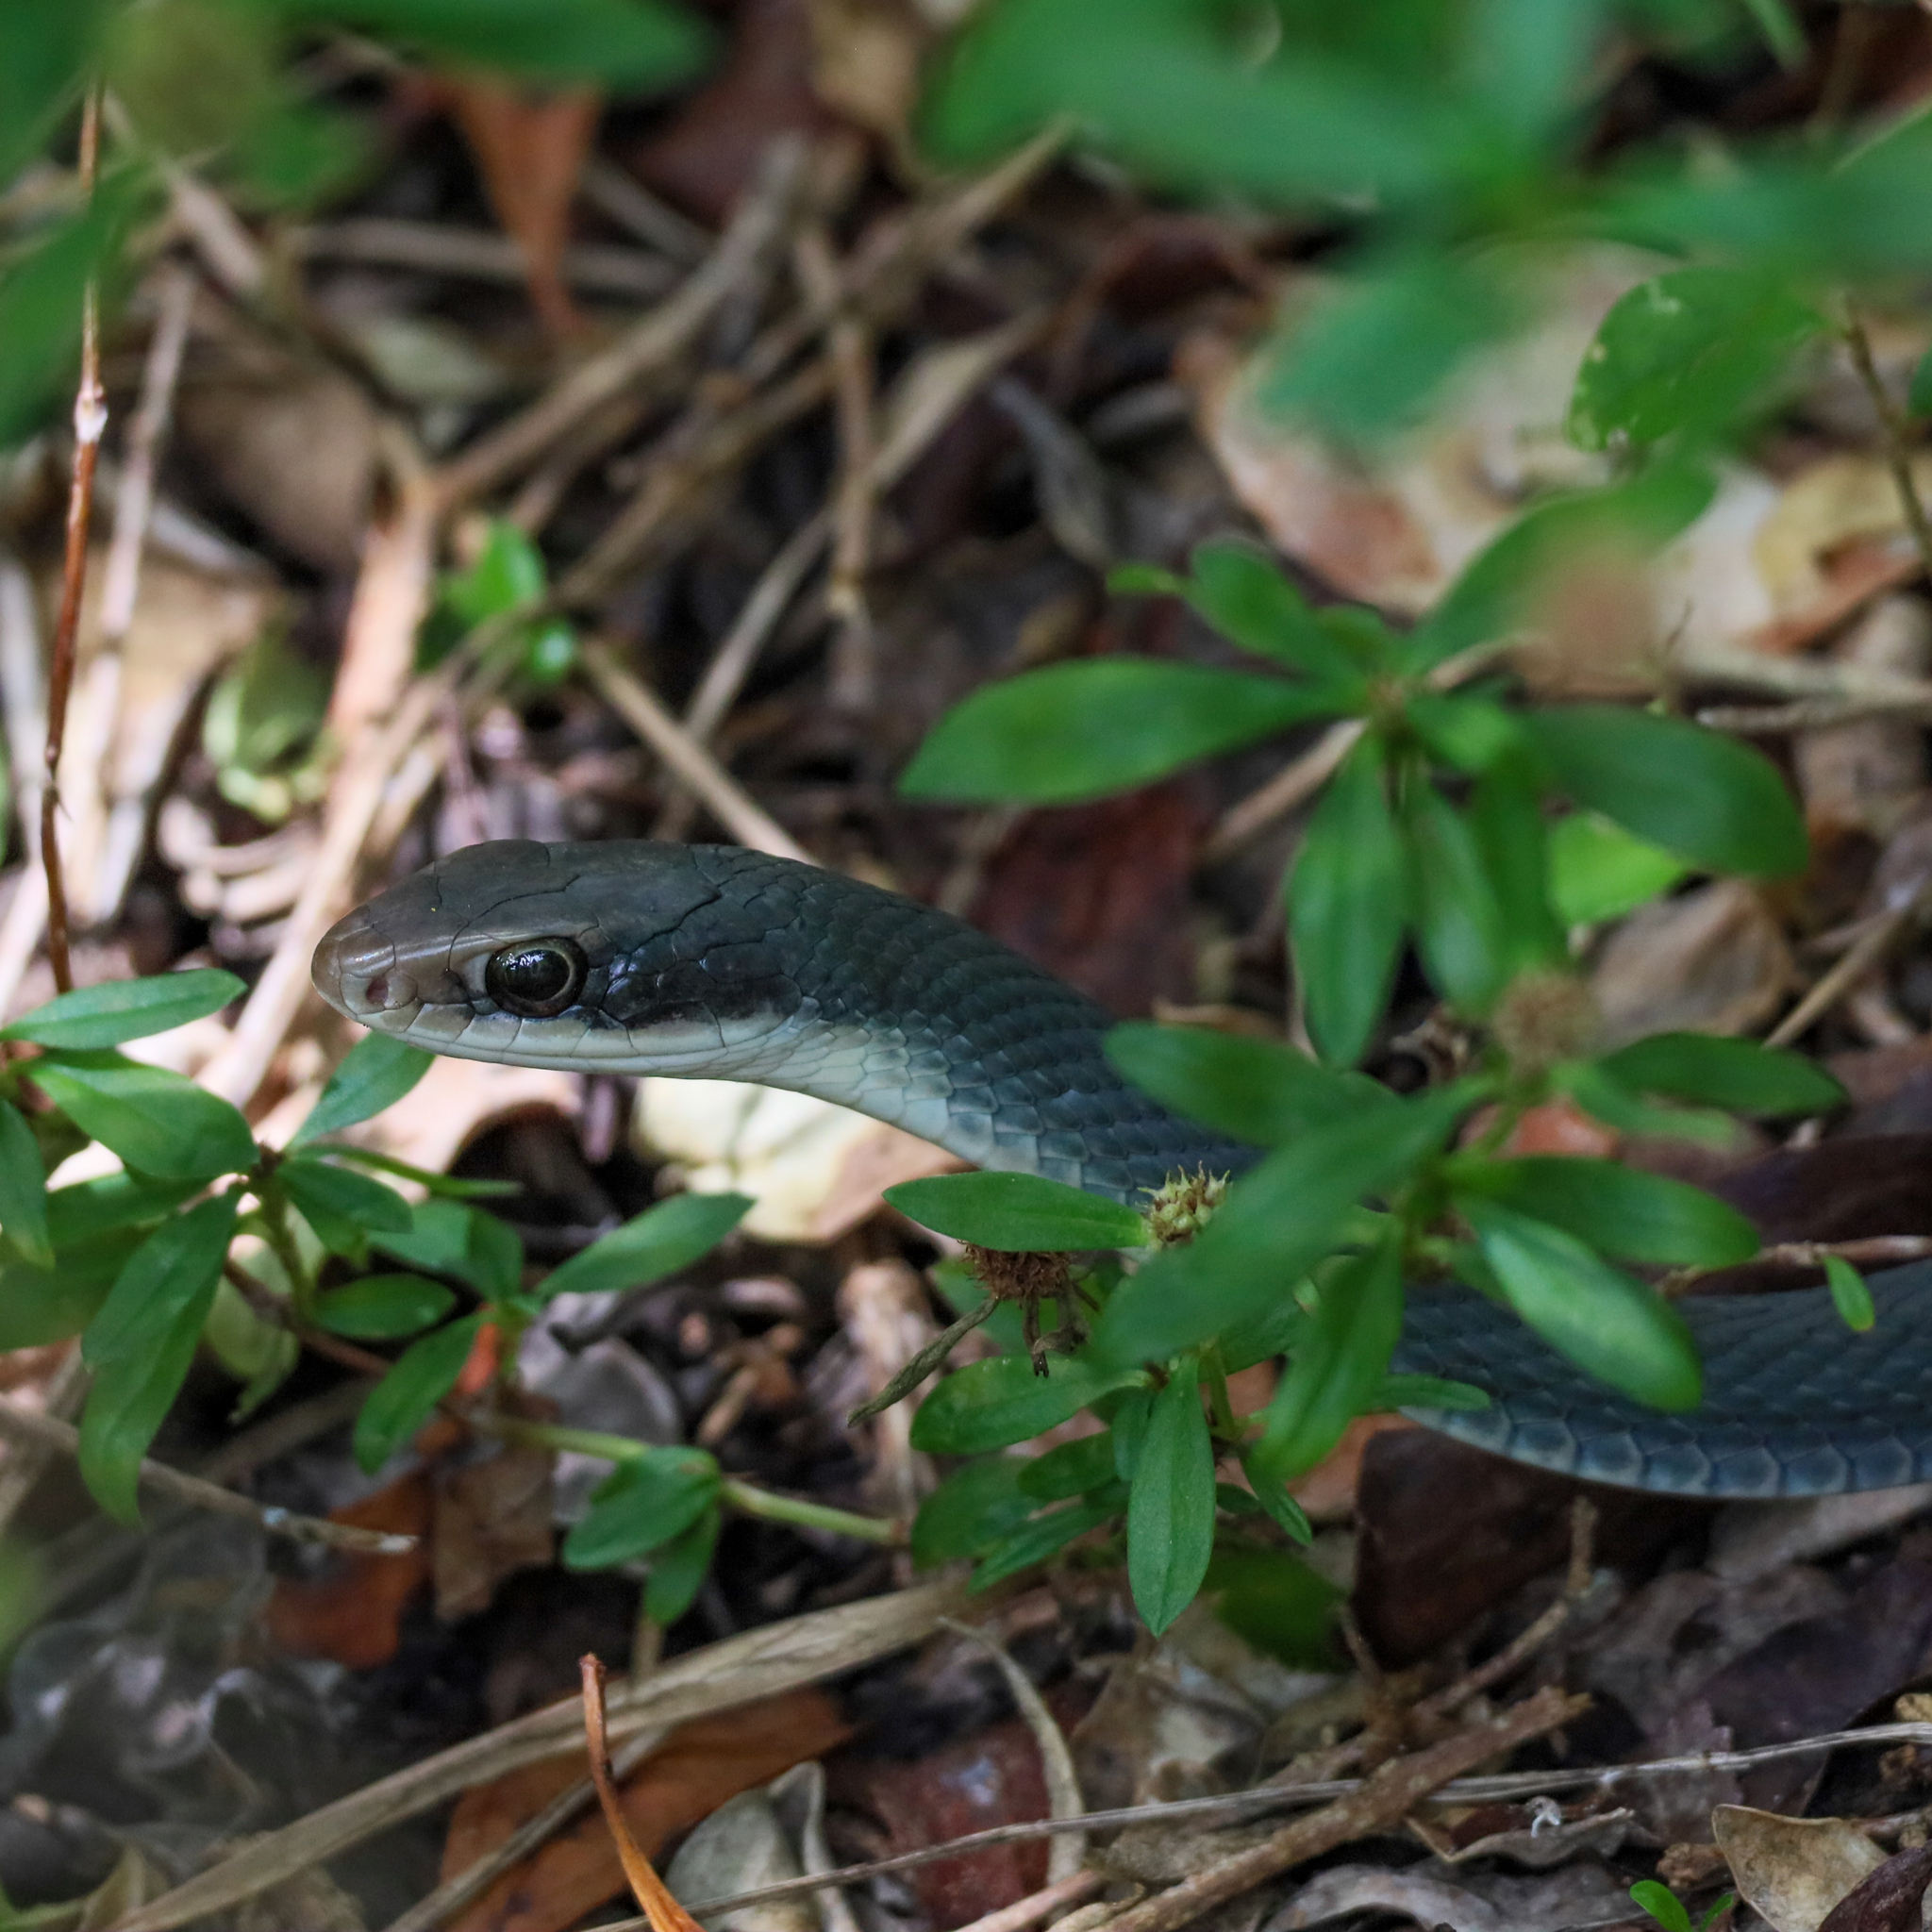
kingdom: Animalia
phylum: Chordata
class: Squamata
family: Colubridae
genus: Coluber
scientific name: Coluber constrictor
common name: Eastern racer
